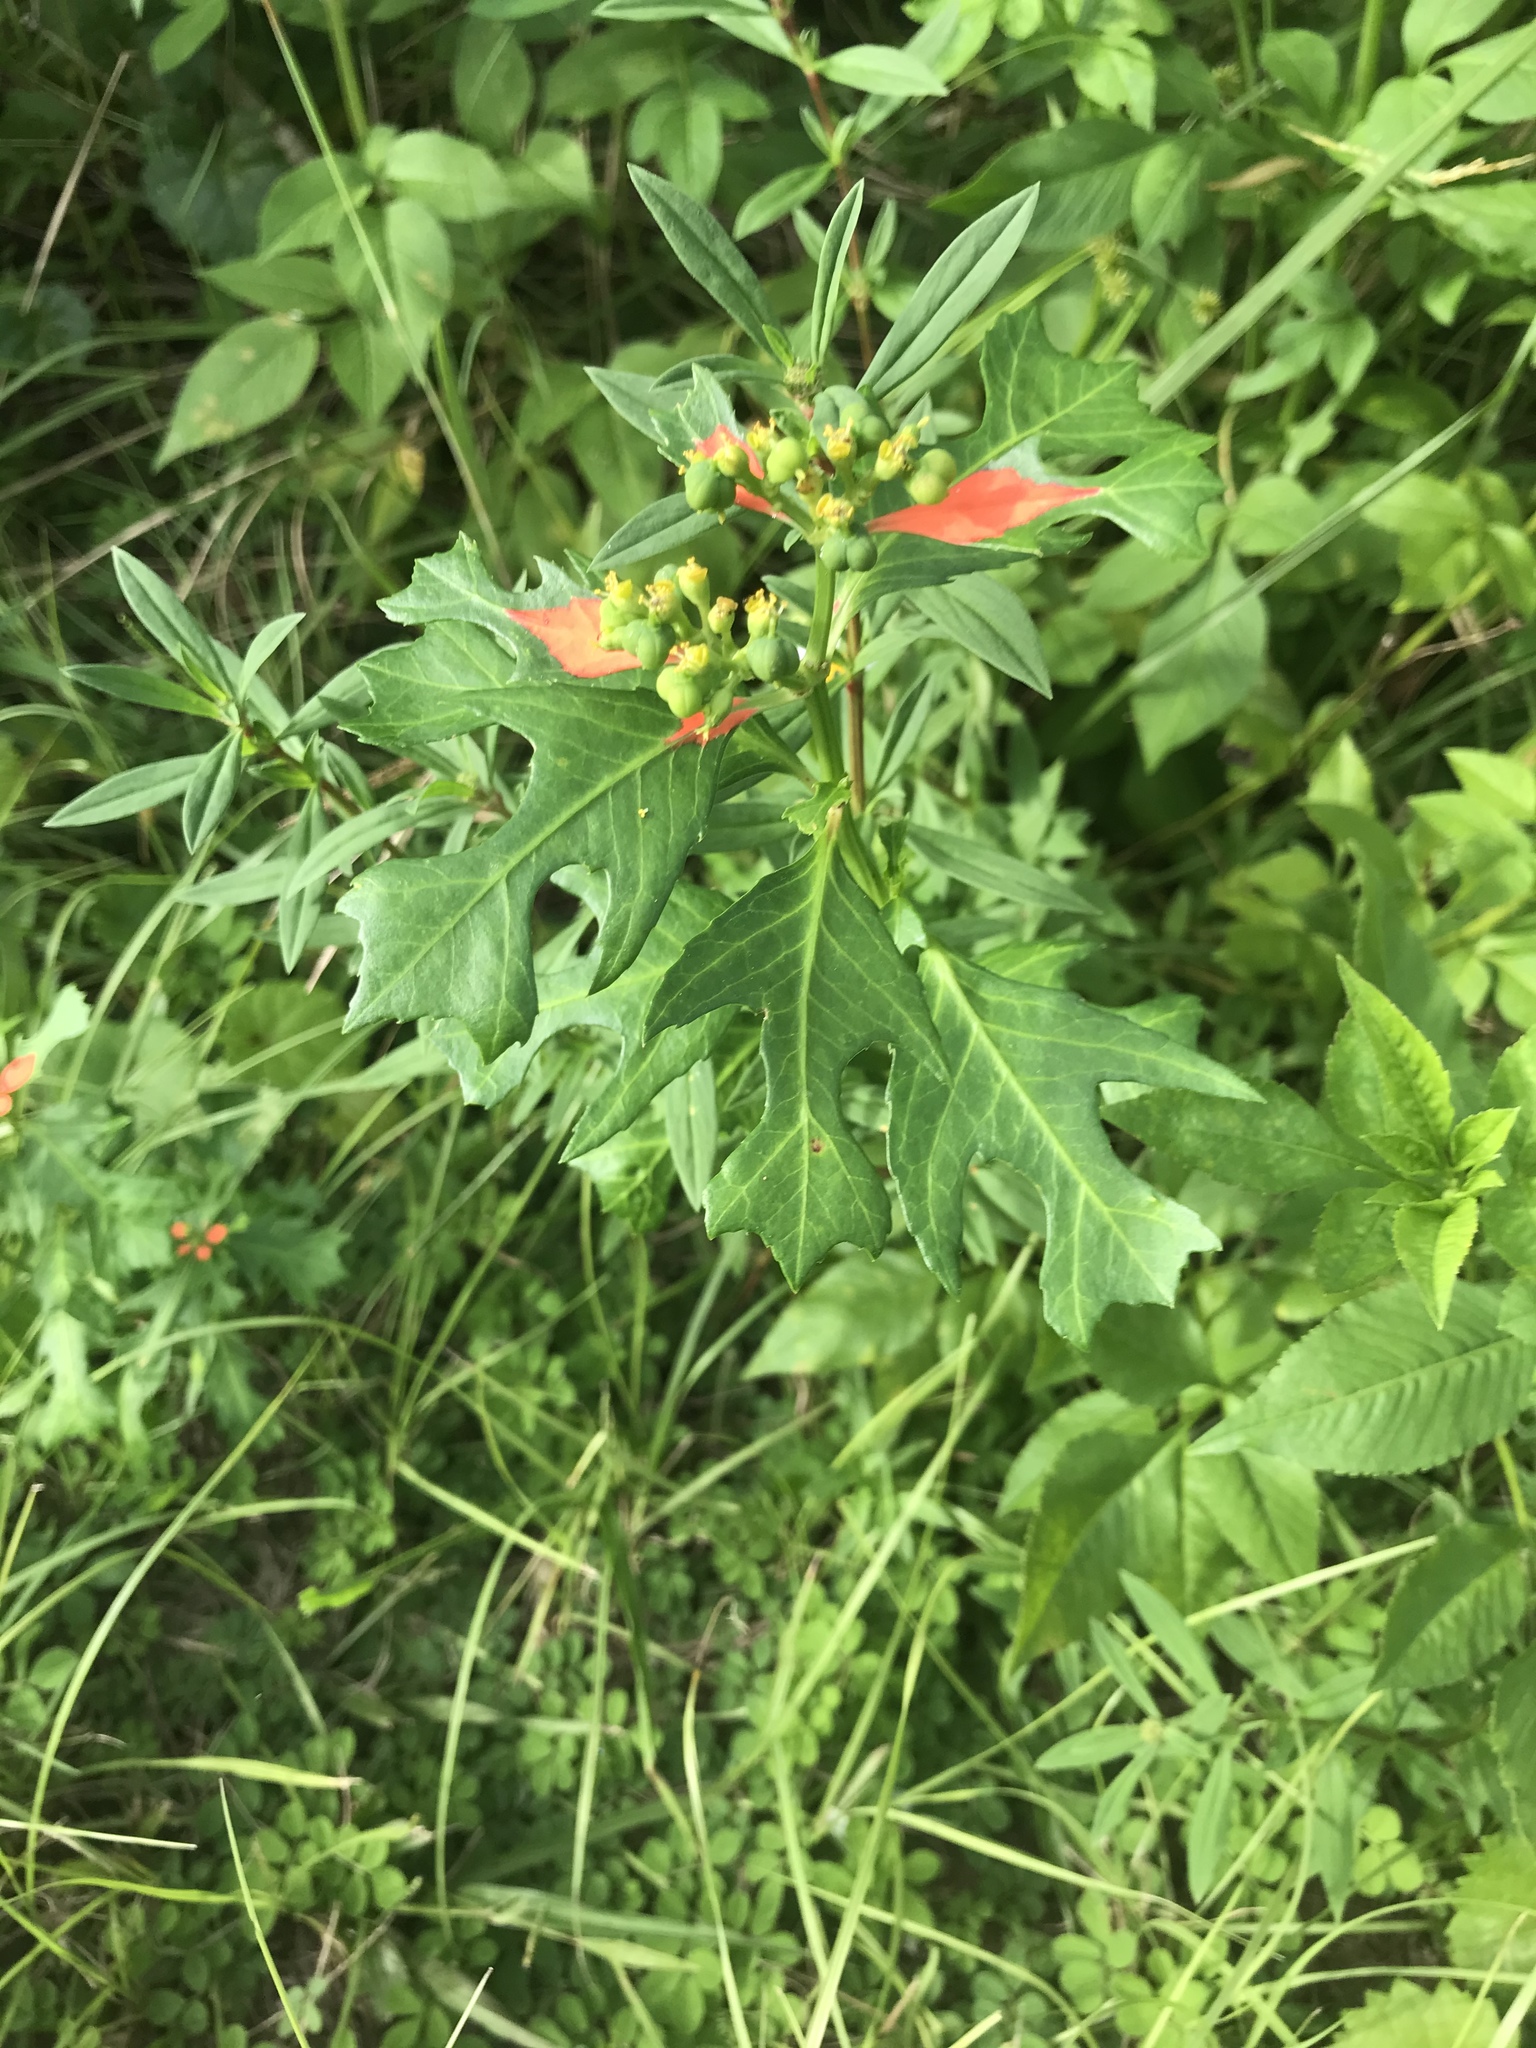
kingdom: Plantae
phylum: Tracheophyta
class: Magnoliopsida
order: Malpighiales
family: Euphorbiaceae
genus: Euphorbia
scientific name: Euphorbia heterophylla
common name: Mexican fireplant
